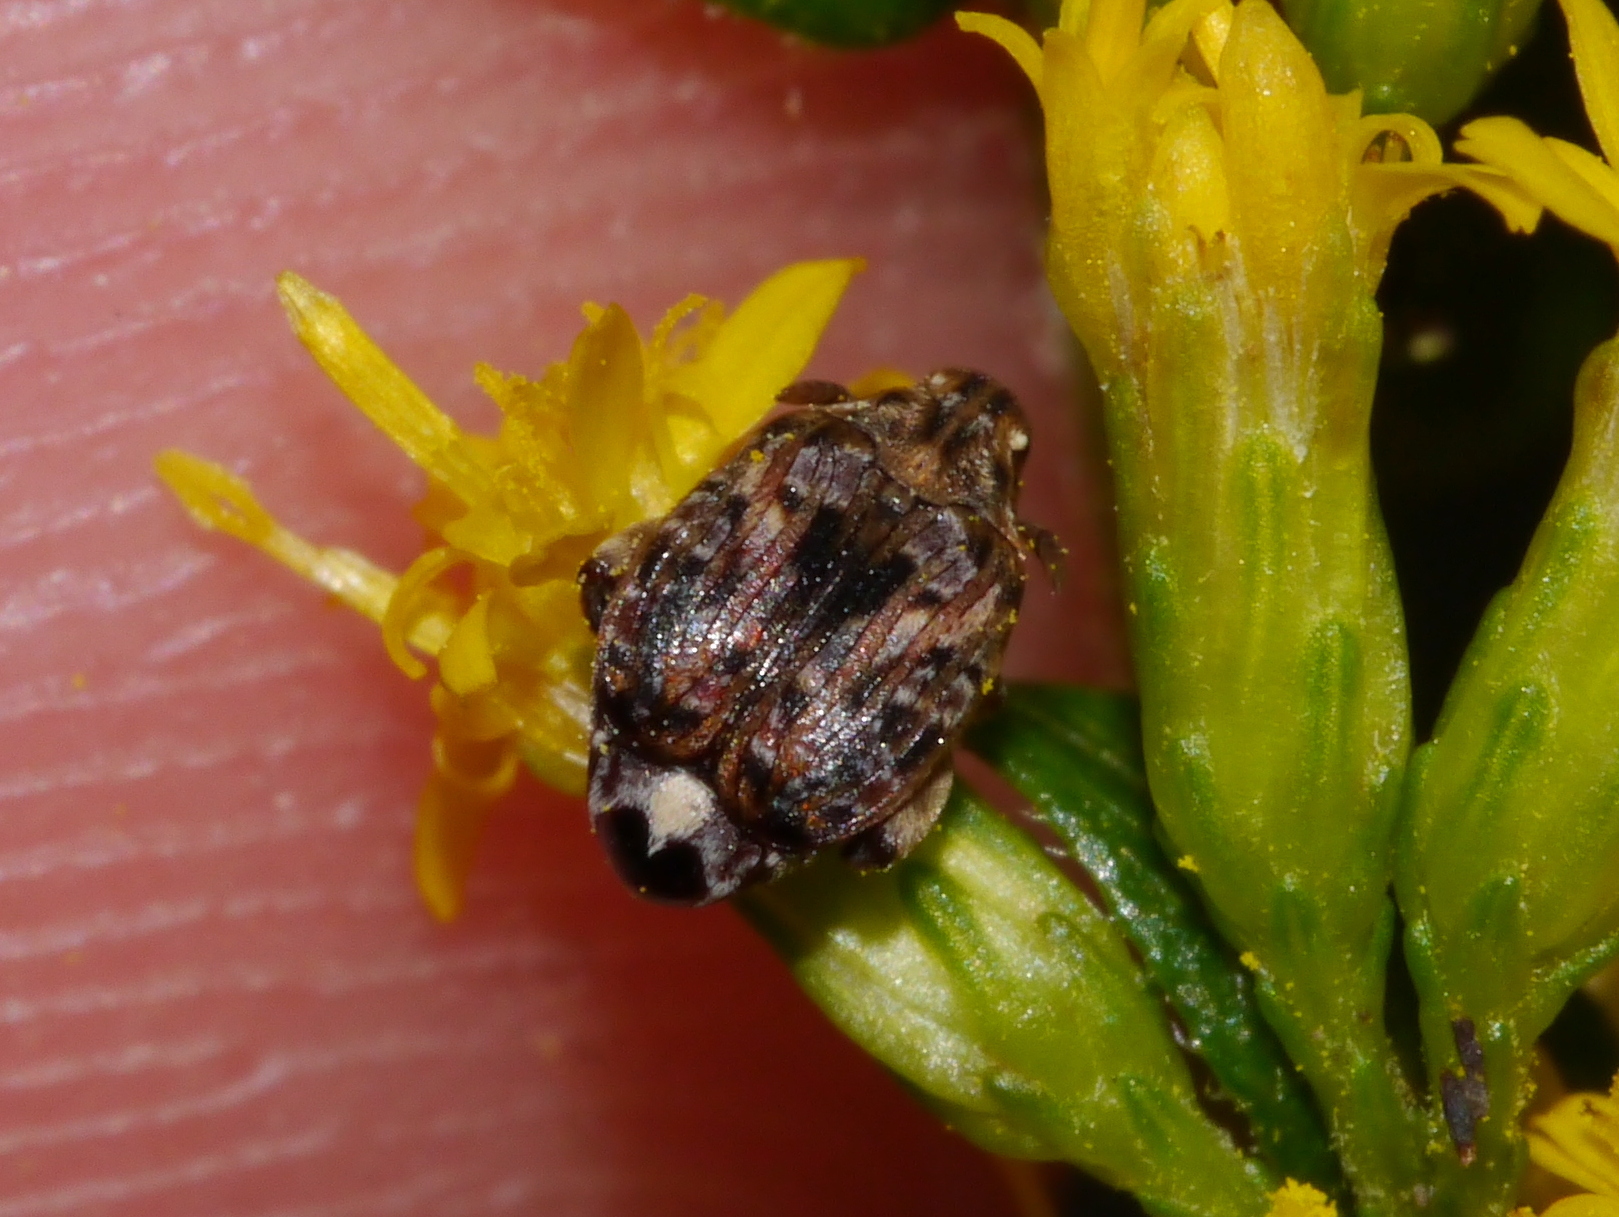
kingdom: Animalia
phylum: Arthropoda
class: Insecta
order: Coleoptera
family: Chrysomelidae
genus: Gibbobruchus
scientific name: Gibbobruchus mimus
